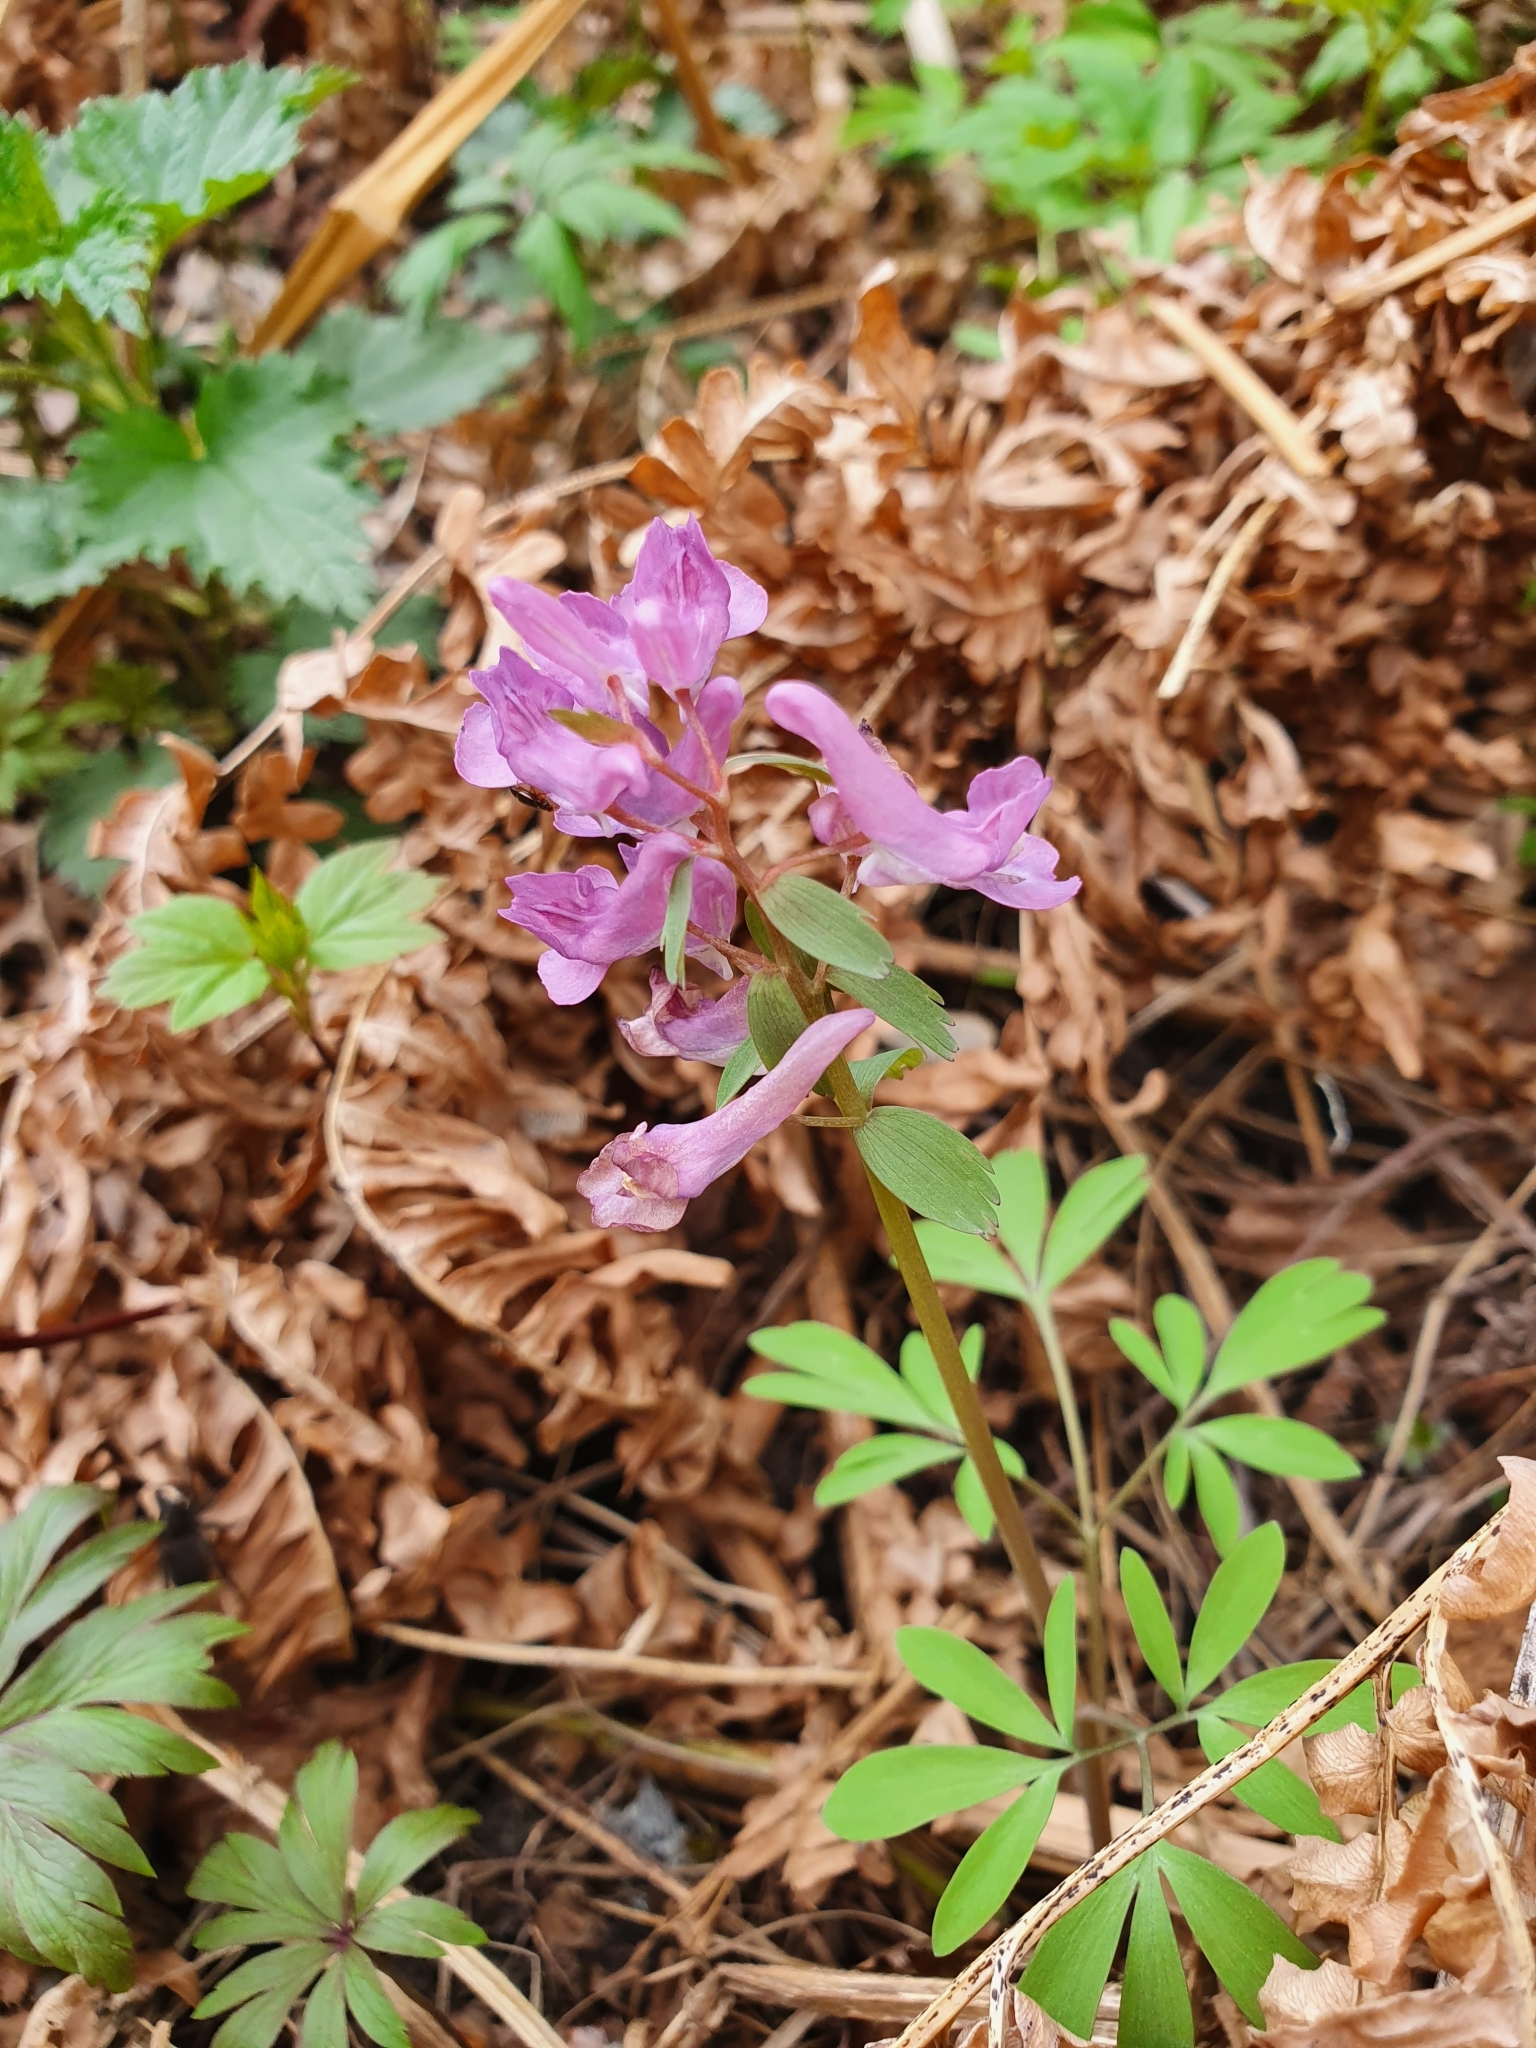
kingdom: Plantae
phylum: Tracheophyta
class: Magnoliopsida
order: Ranunculales
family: Papaveraceae
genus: Corydalis
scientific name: Corydalis solida
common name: Bird-in-a-bush
